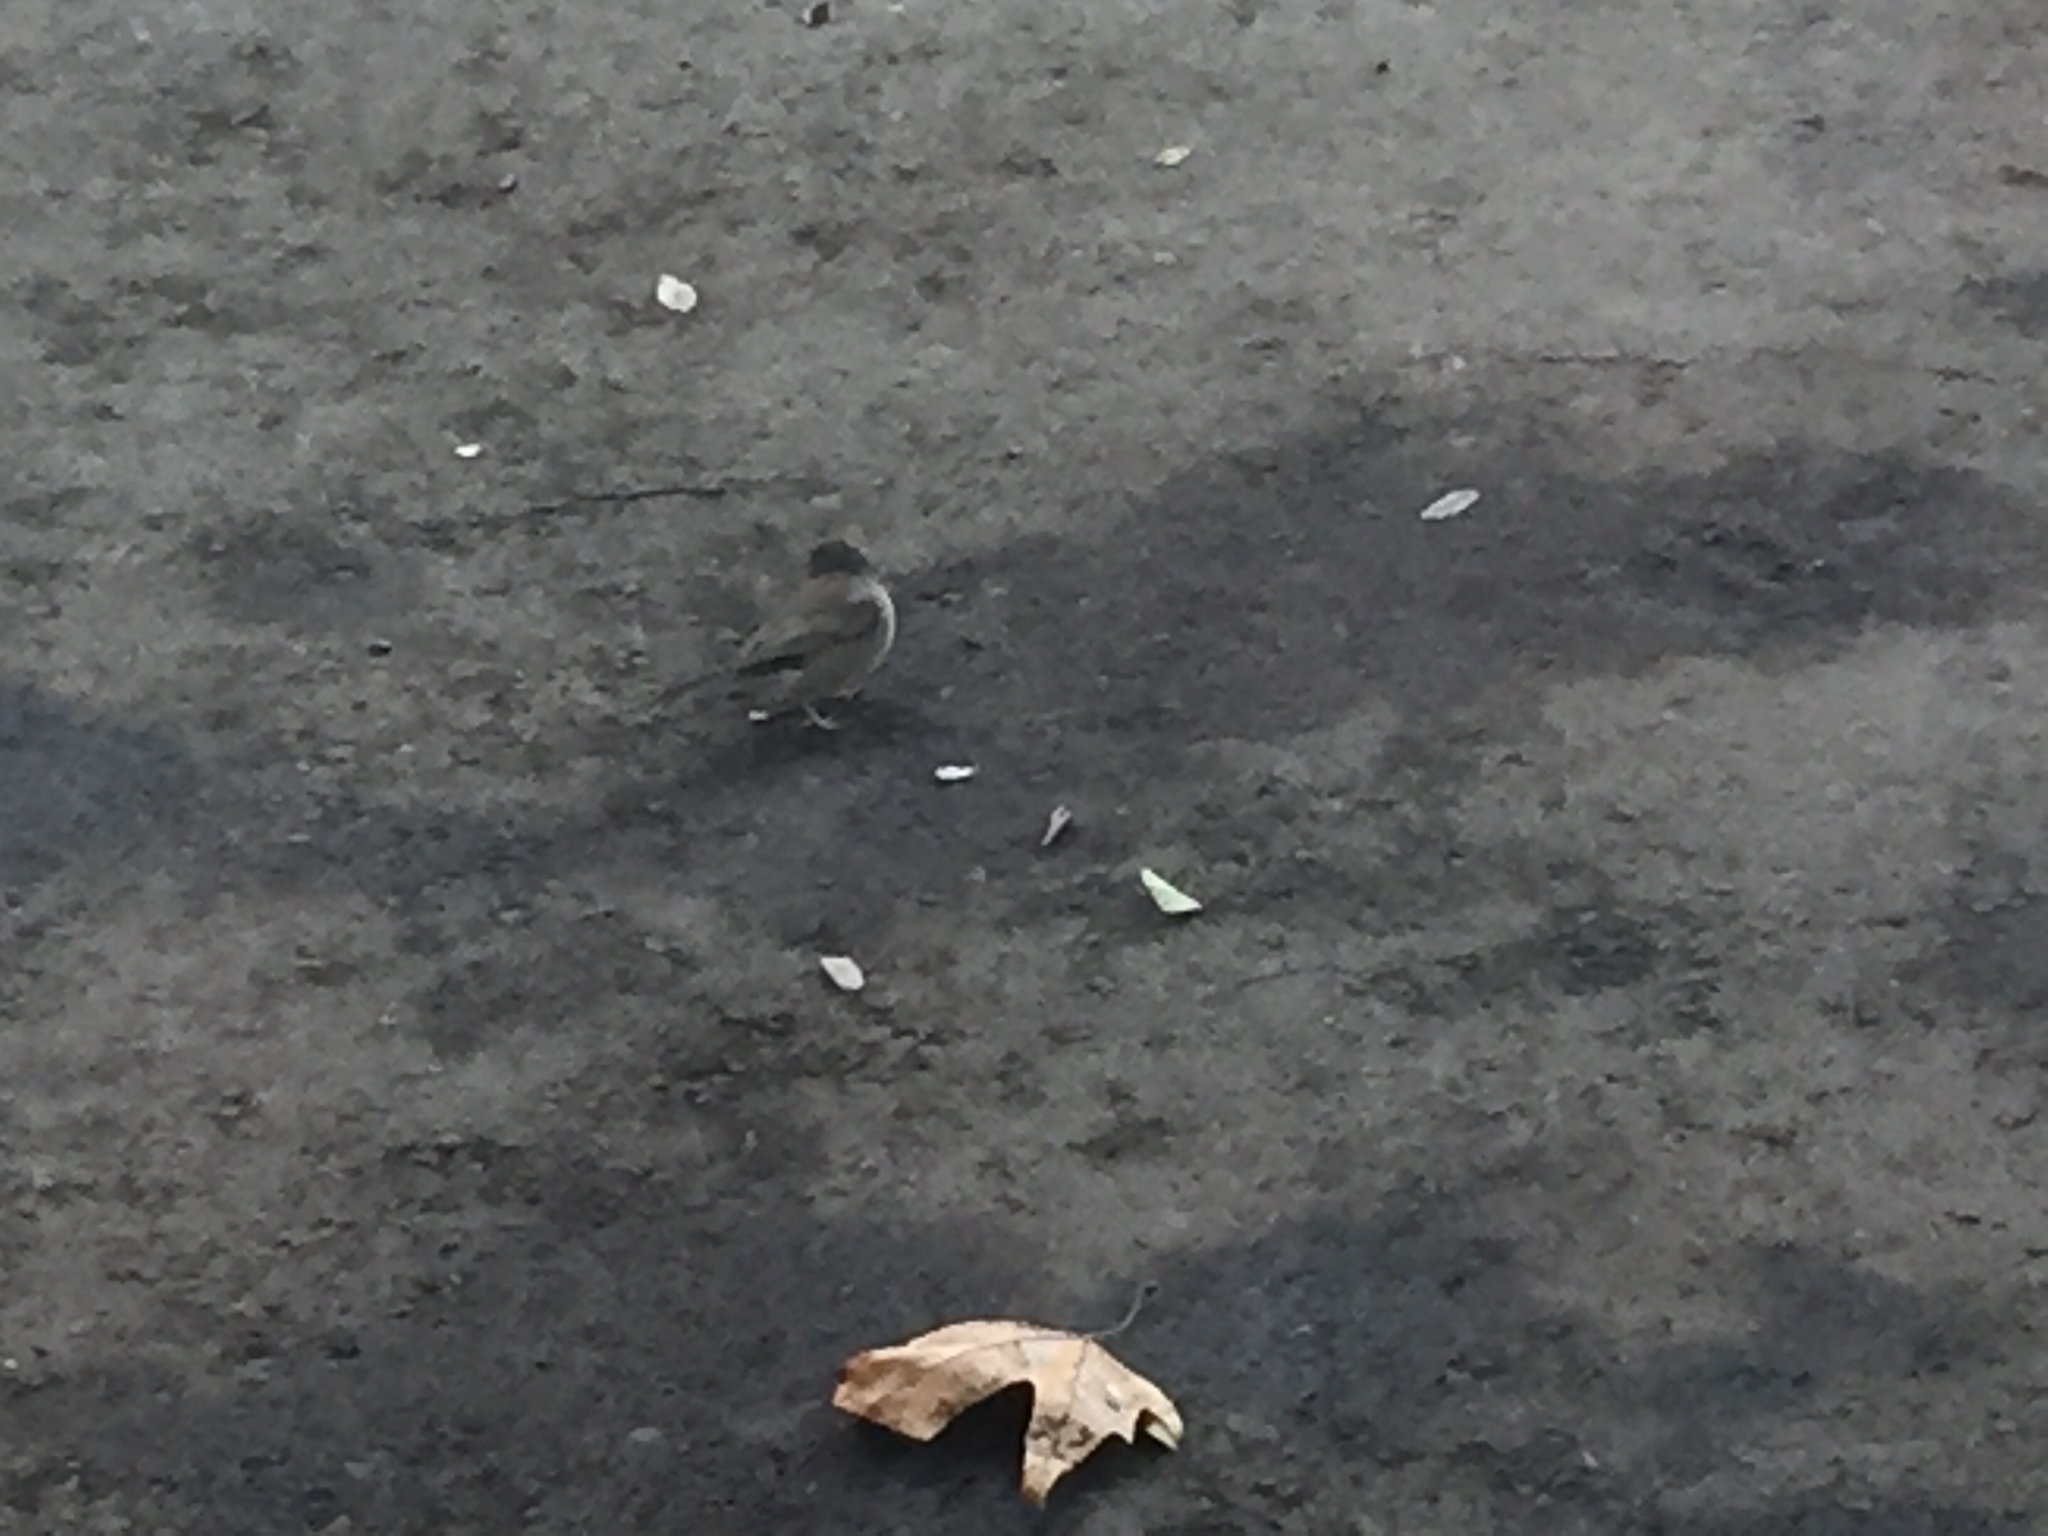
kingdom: Animalia
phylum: Chordata
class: Aves
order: Passeriformes
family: Passerellidae
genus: Junco
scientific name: Junco hyemalis
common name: Dark-eyed junco
